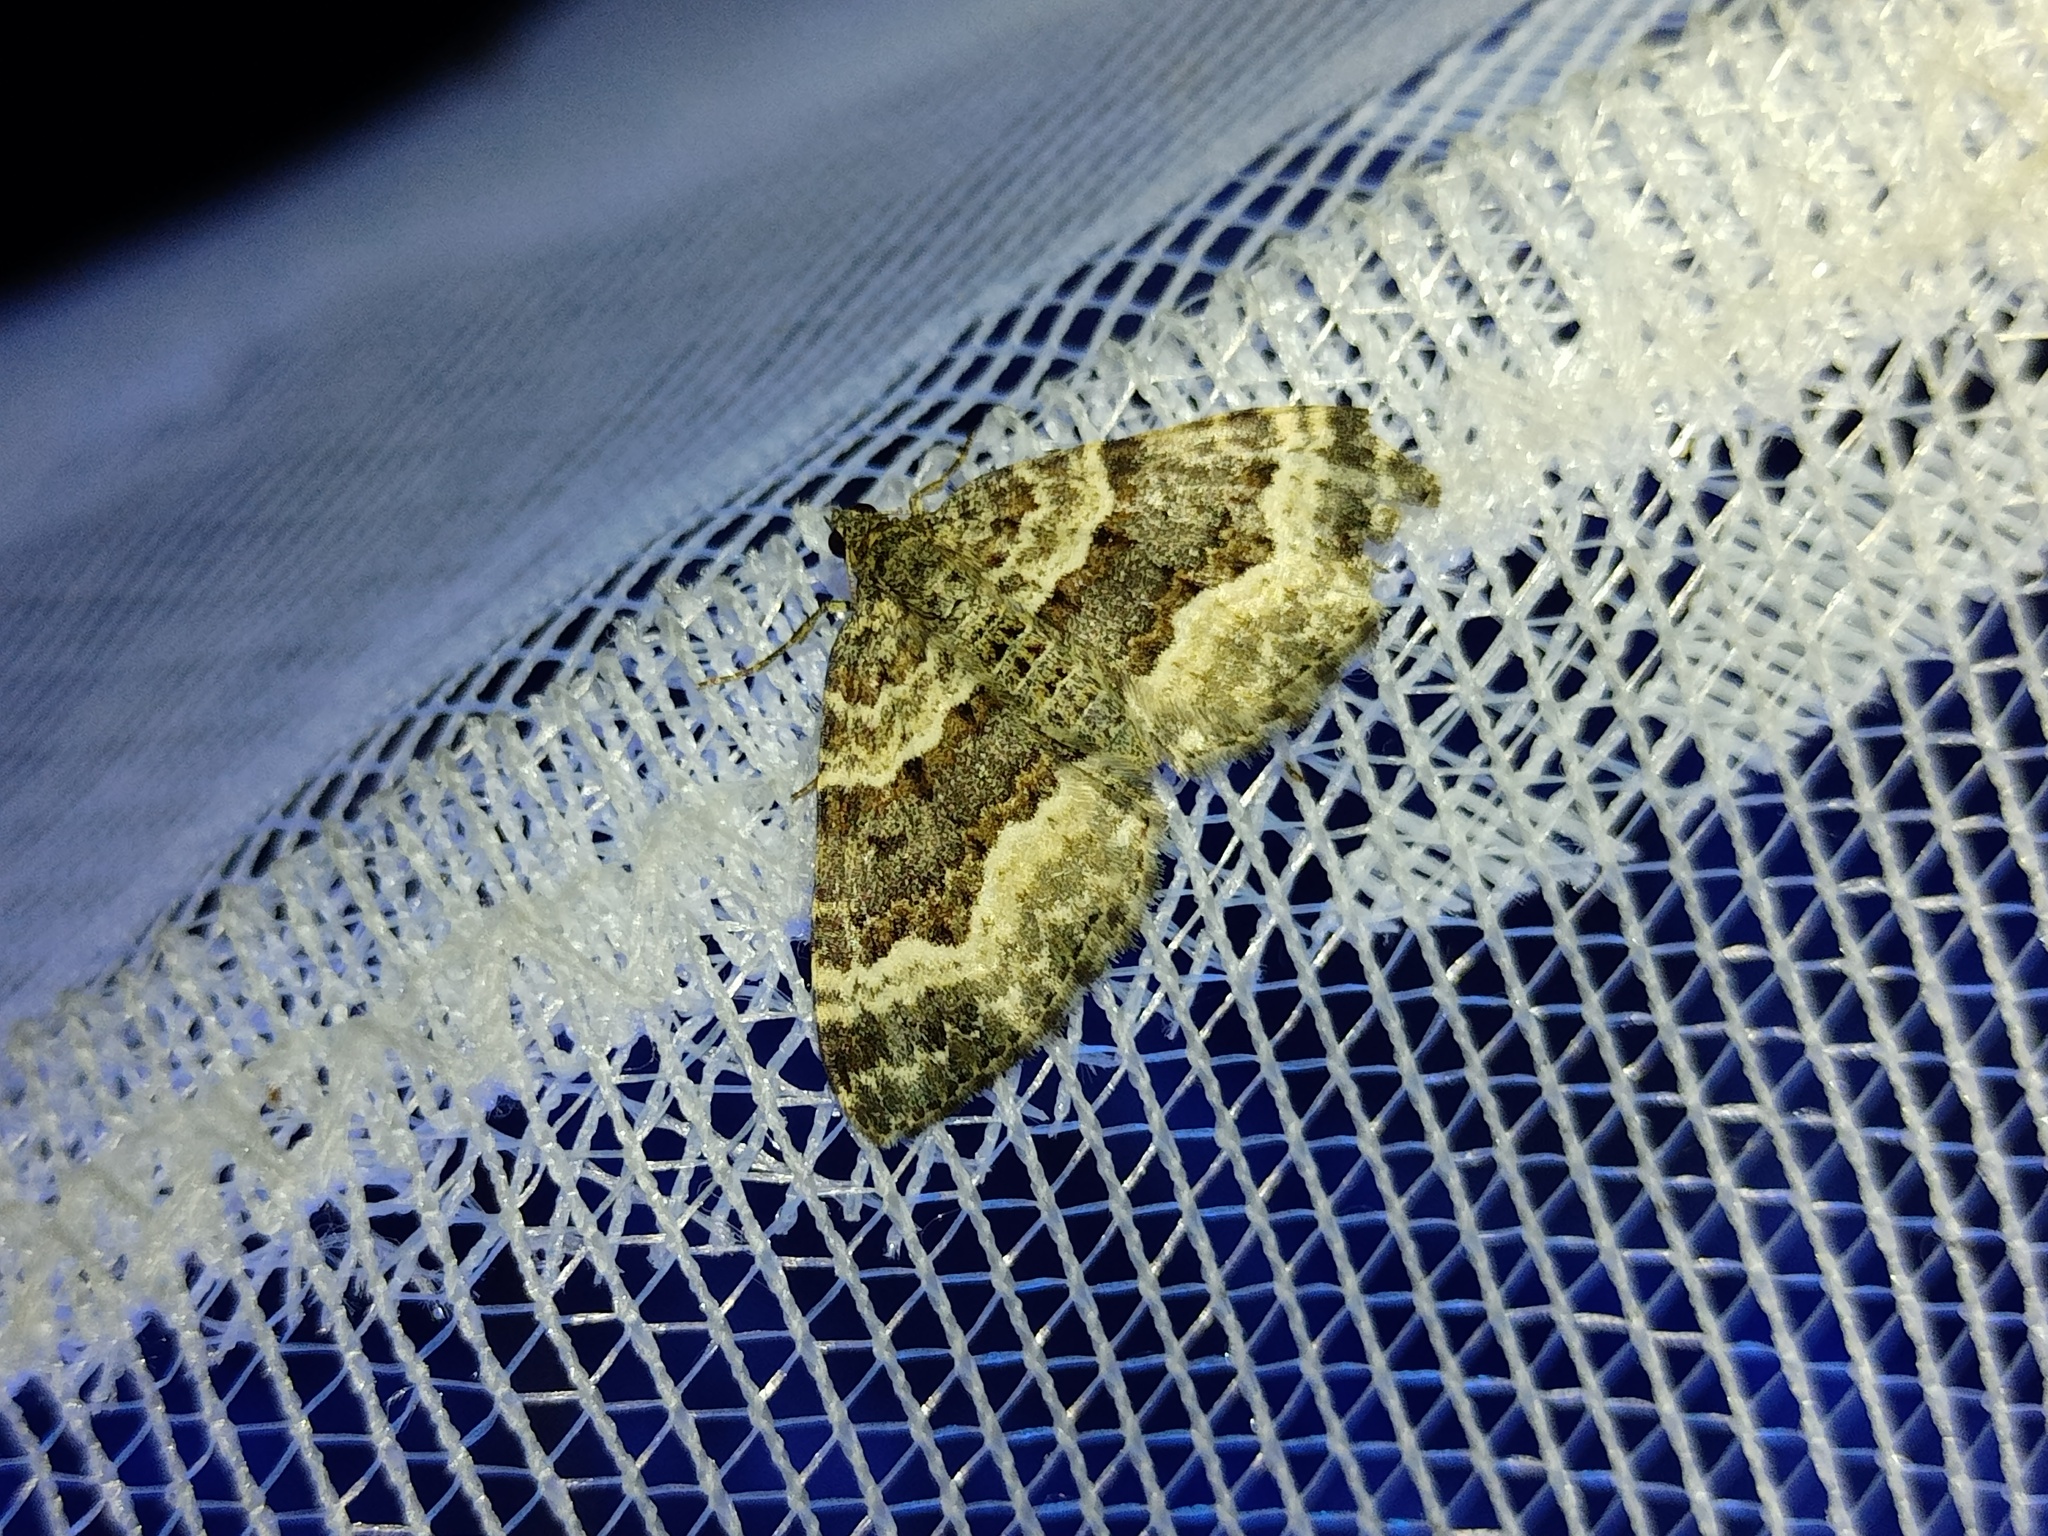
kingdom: Animalia
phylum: Arthropoda
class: Insecta
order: Lepidoptera
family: Geometridae
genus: Epirrhoe
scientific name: Epirrhoe alternata
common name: Common carpet
